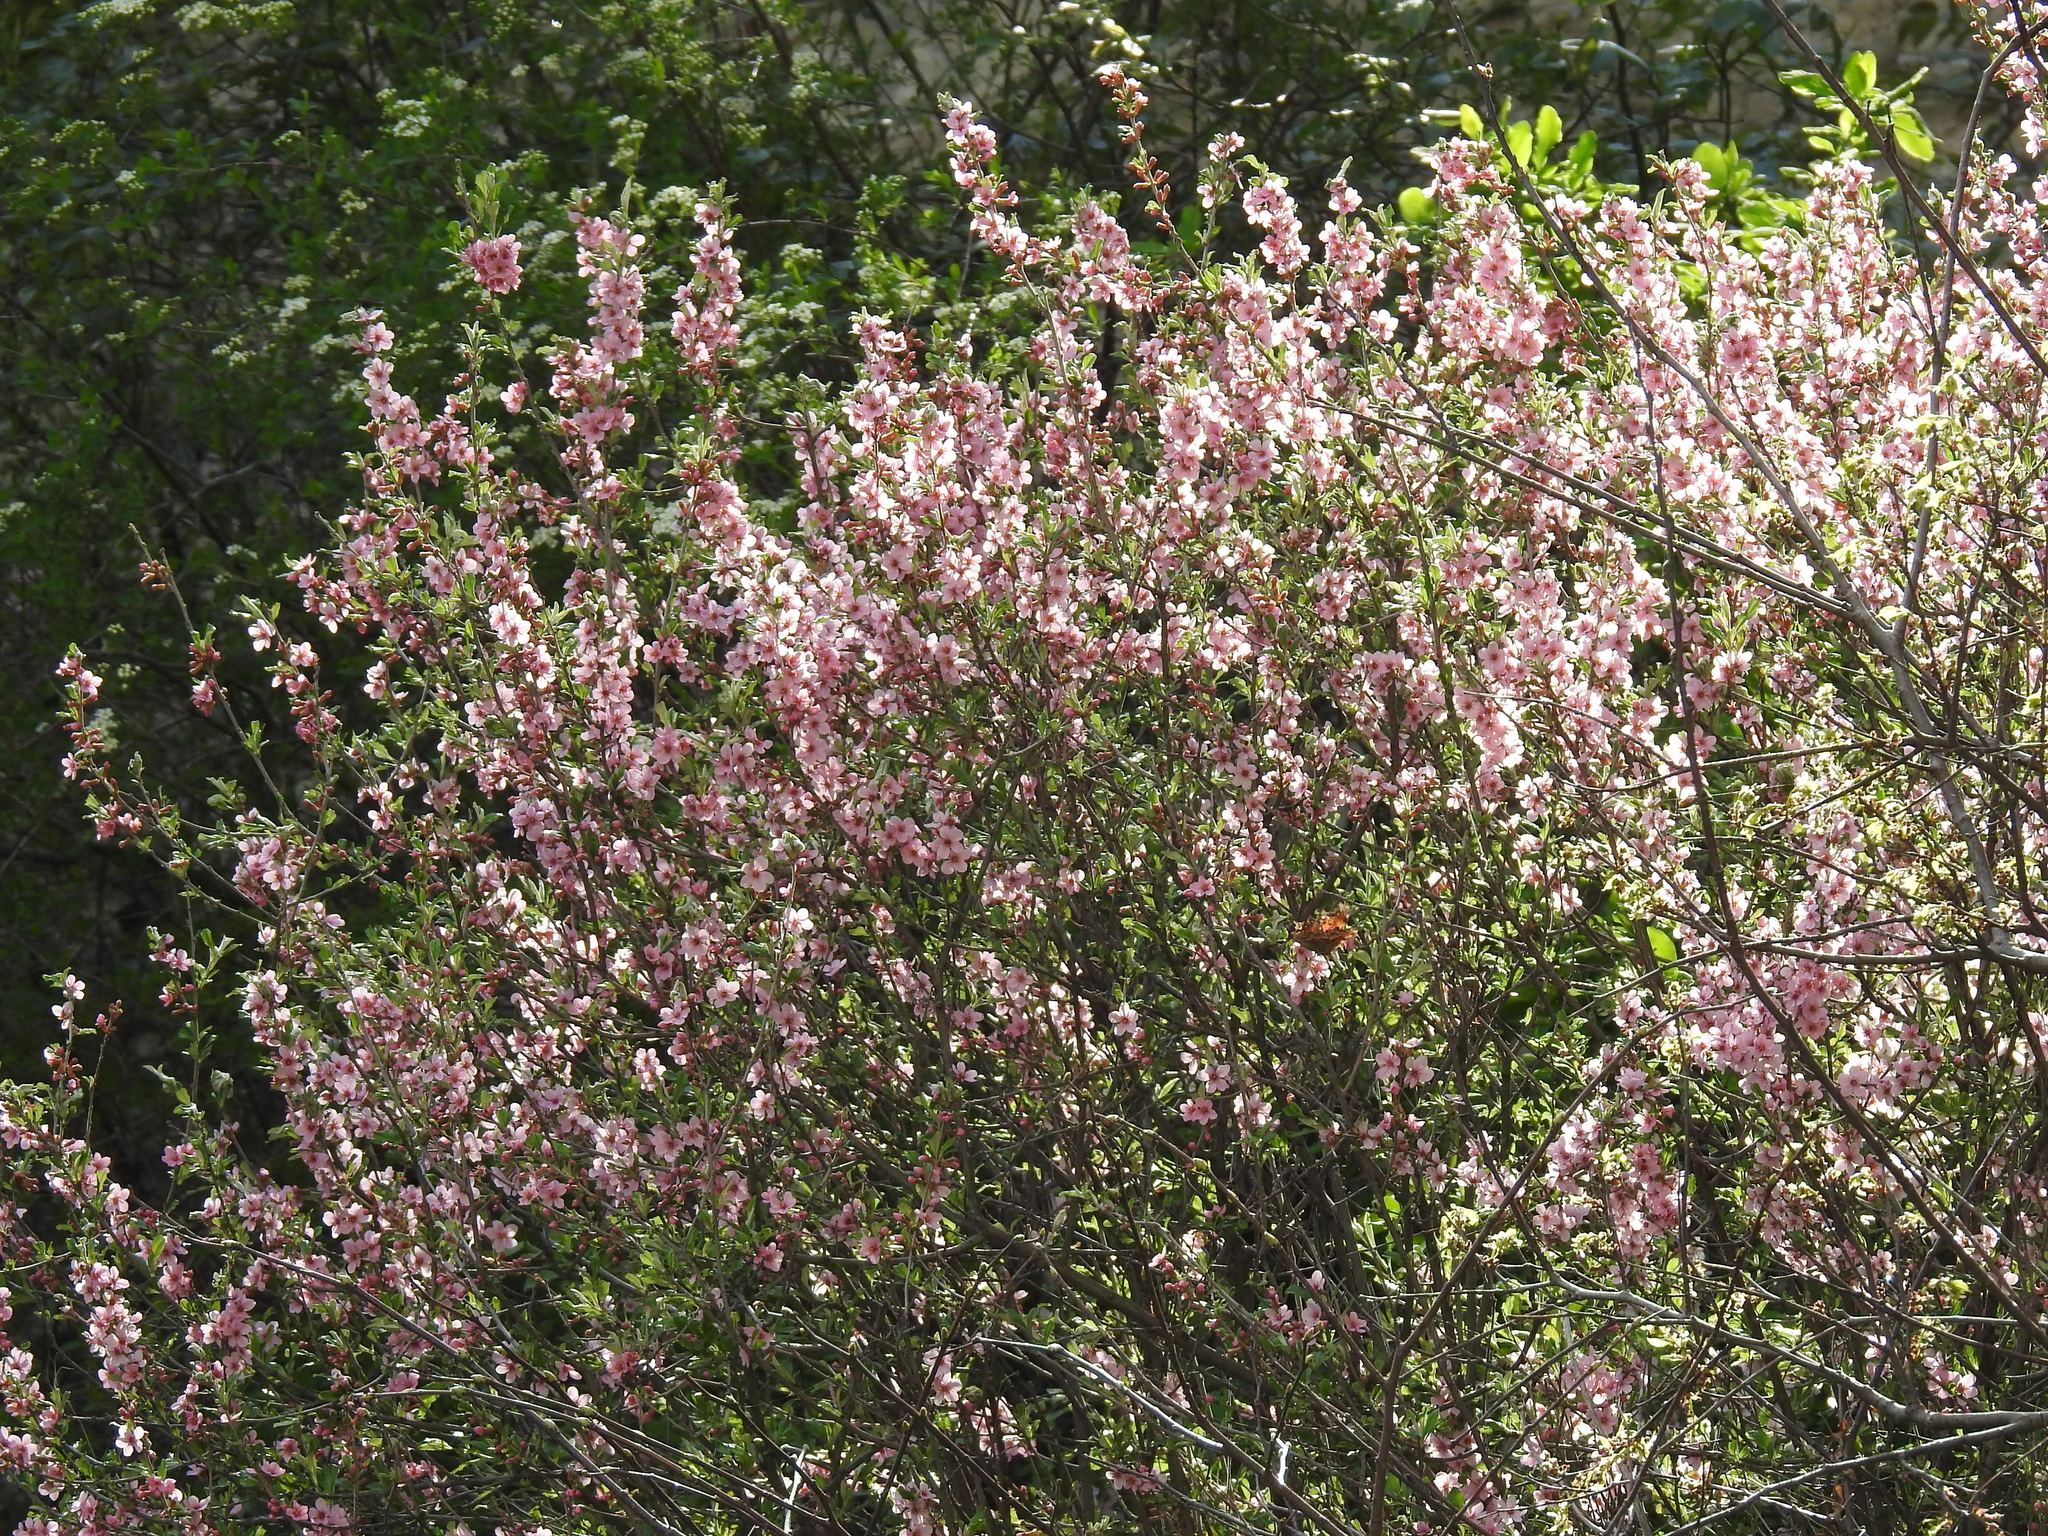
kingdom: Plantae
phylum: Tracheophyta
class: Magnoliopsida
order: Rosales
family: Rosaceae
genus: Prunus
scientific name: Prunus incana
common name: Willow cherry
